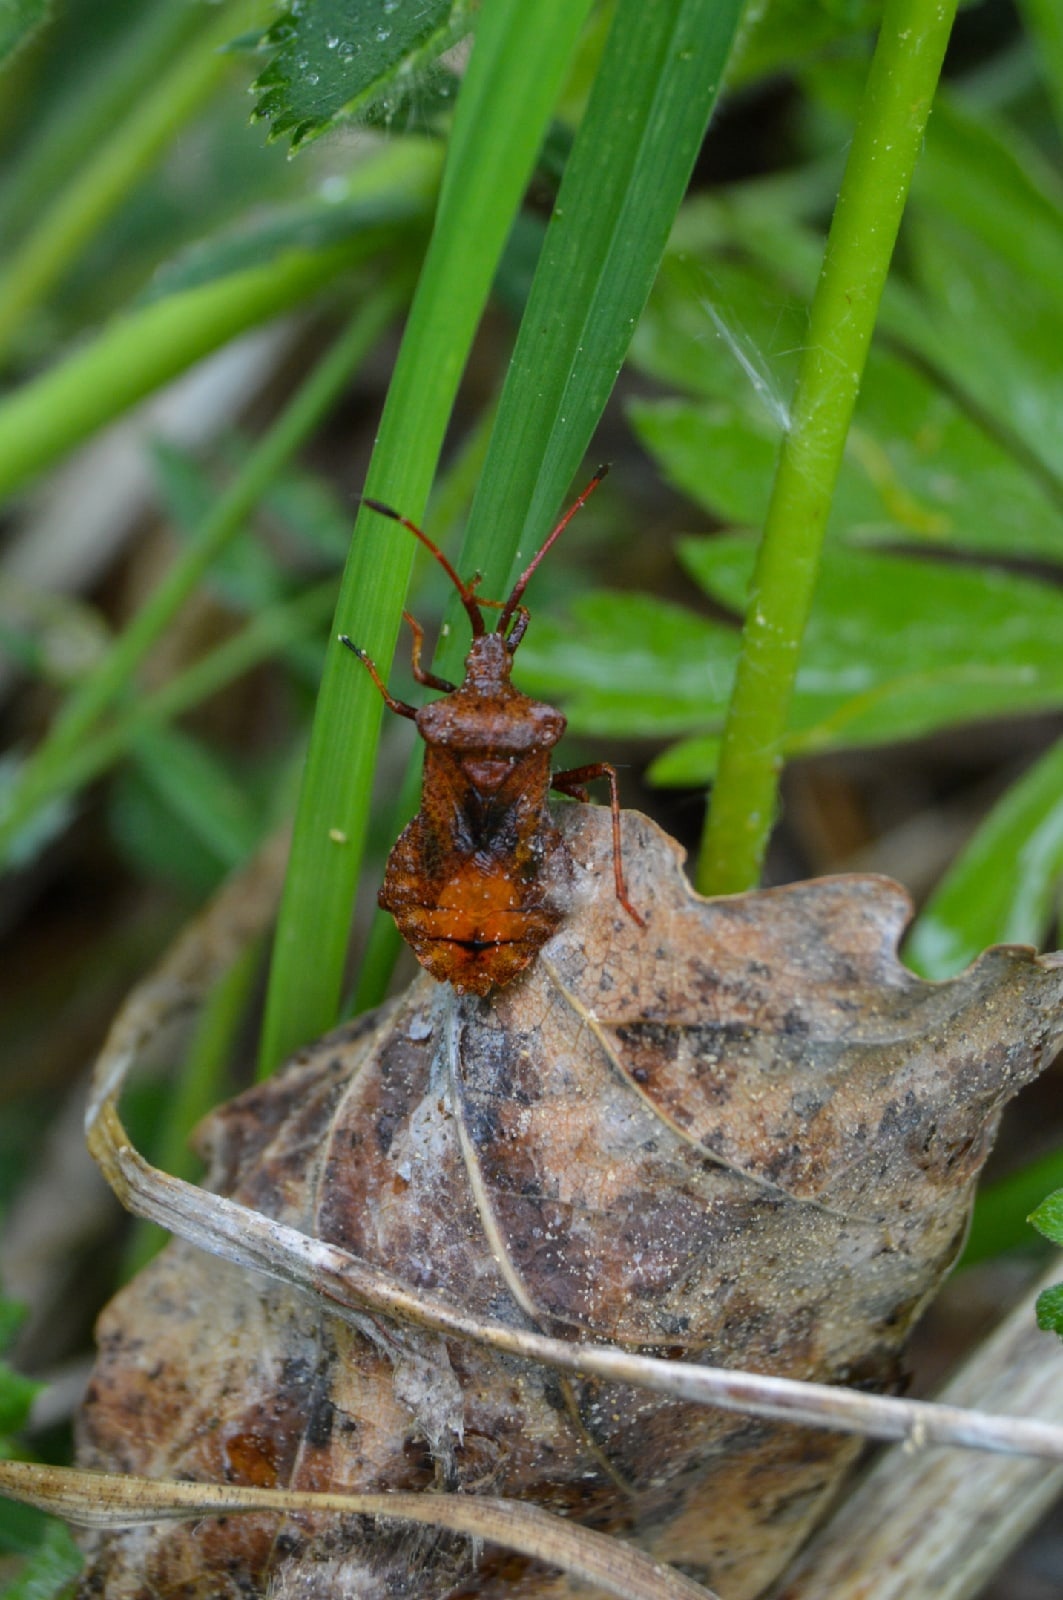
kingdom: Animalia
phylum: Arthropoda
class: Insecta
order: Hemiptera
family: Coreidae
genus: Coreus
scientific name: Coreus marginatus
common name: Dock bug
